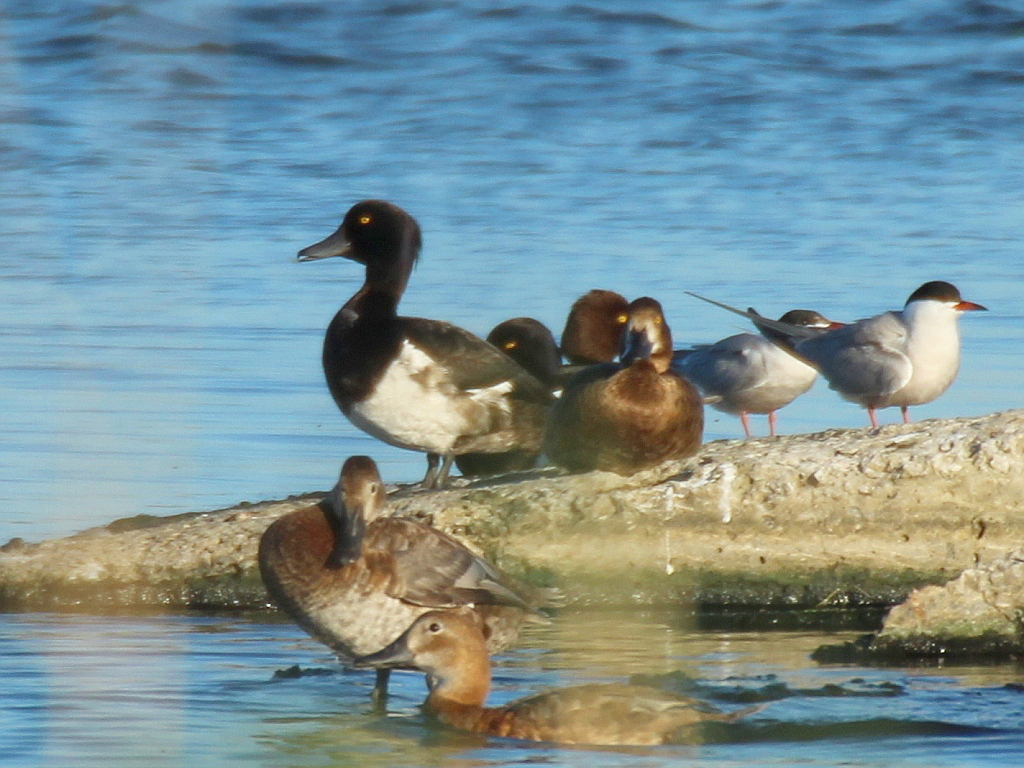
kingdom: Animalia
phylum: Chordata
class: Aves
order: Anseriformes
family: Anatidae
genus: Aythya
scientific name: Aythya fuligula
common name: Tufted duck
